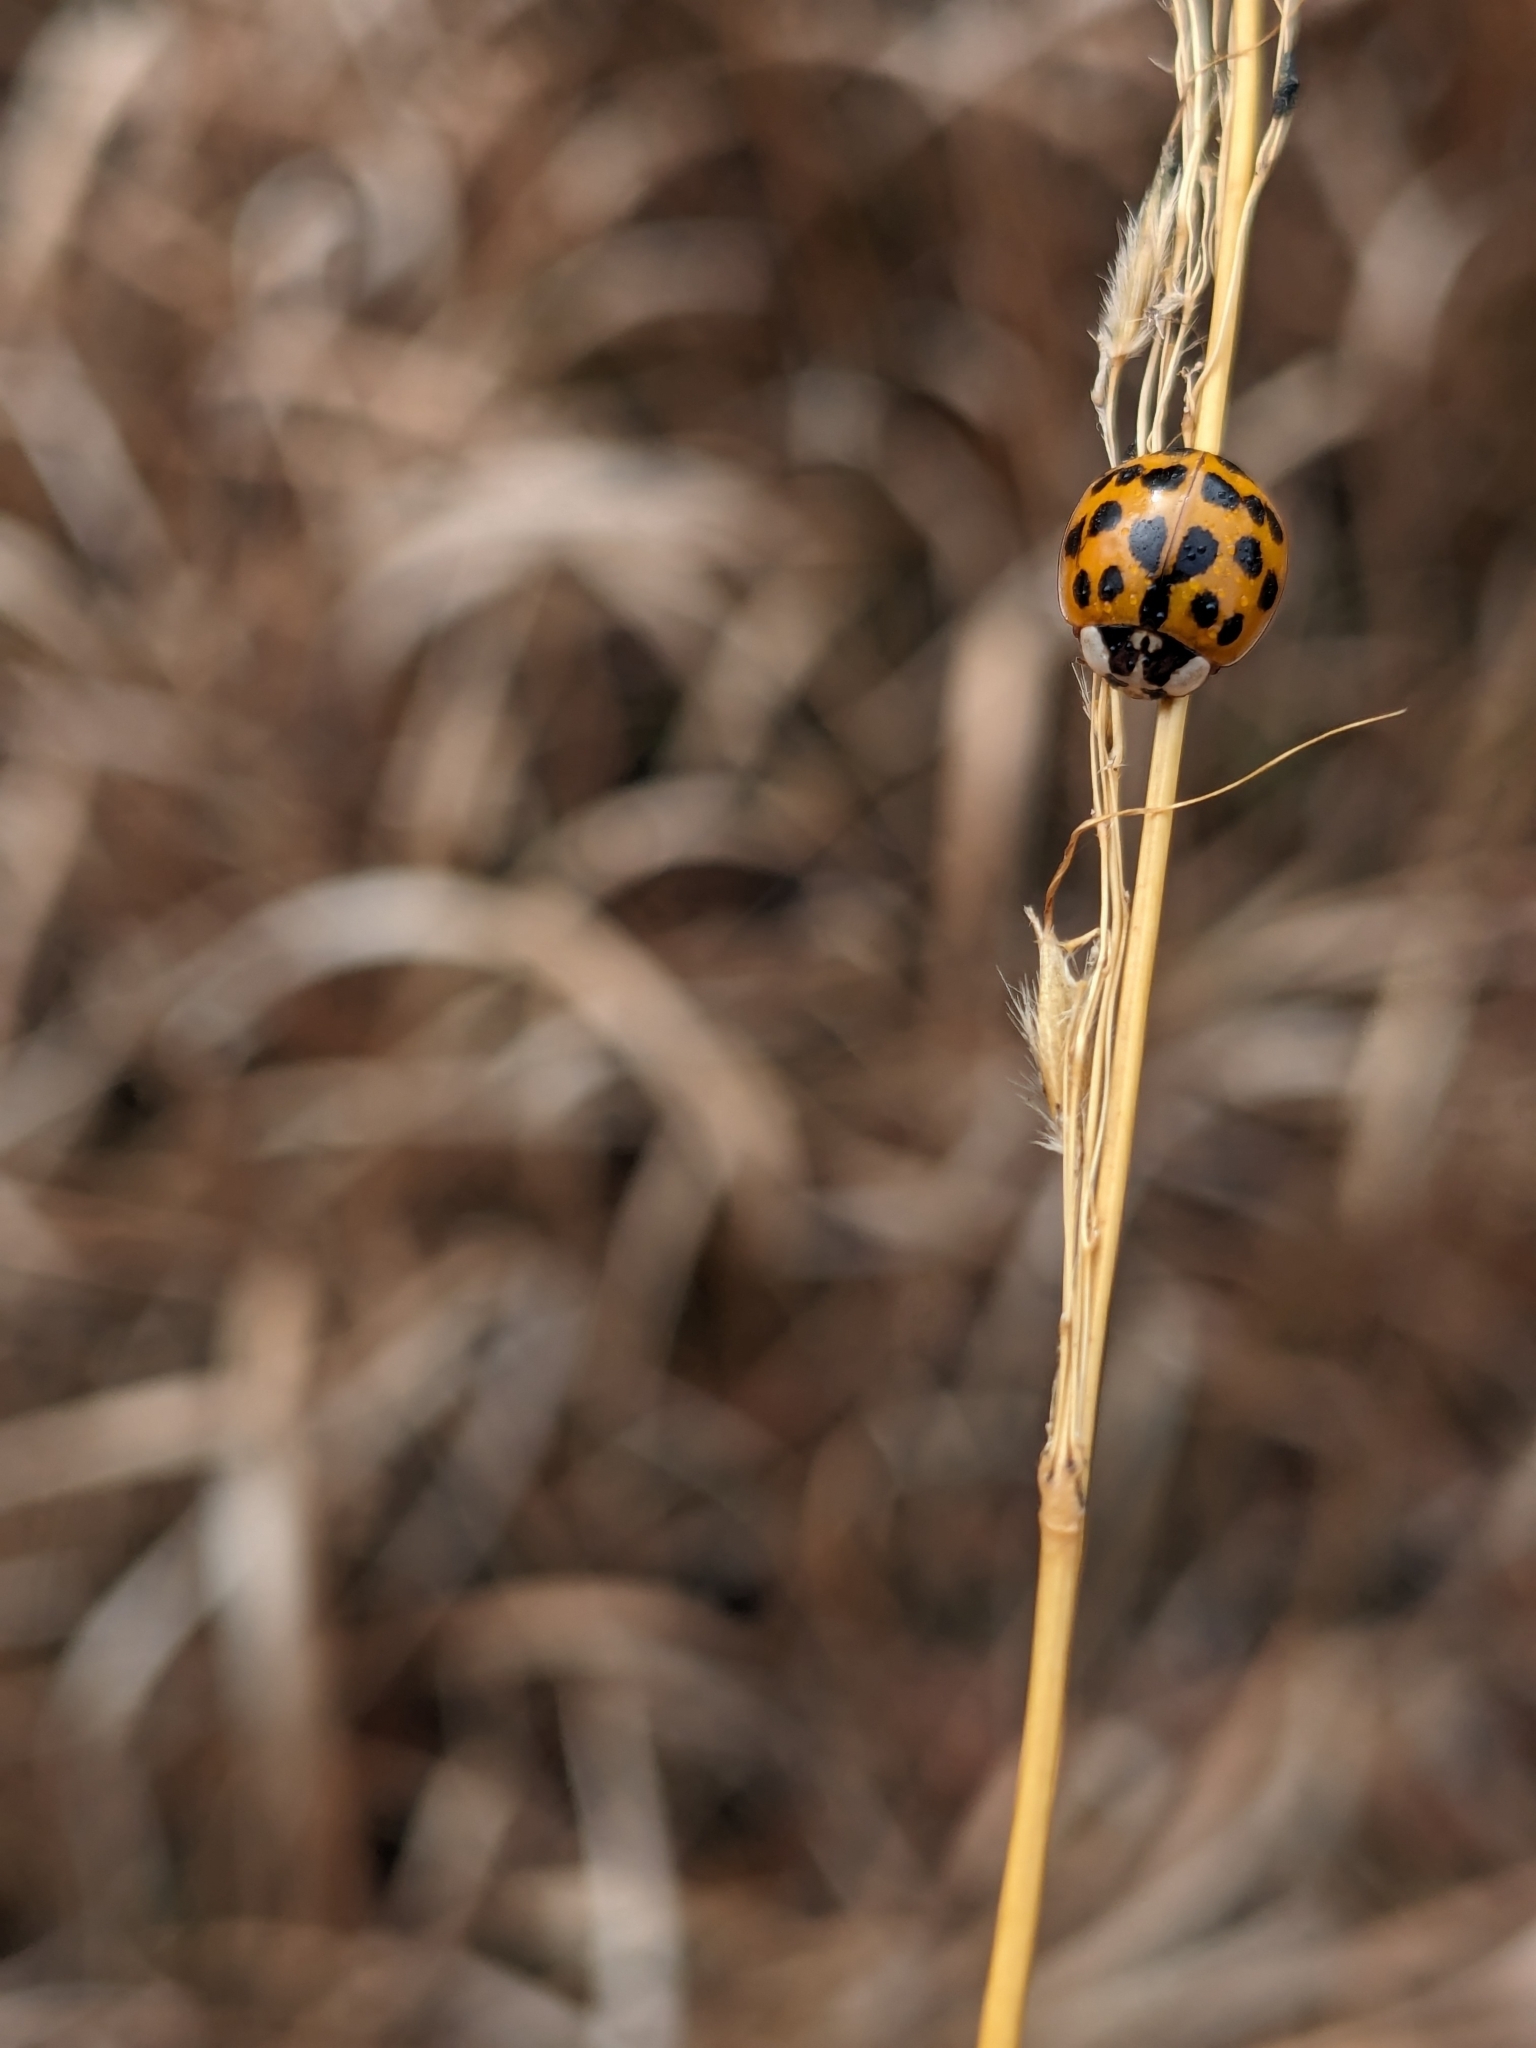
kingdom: Animalia
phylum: Arthropoda
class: Insecta
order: Coleoptera
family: Coccinellidae
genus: Harmonia
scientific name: Harmonia axyridis
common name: Harlequin ladybird
